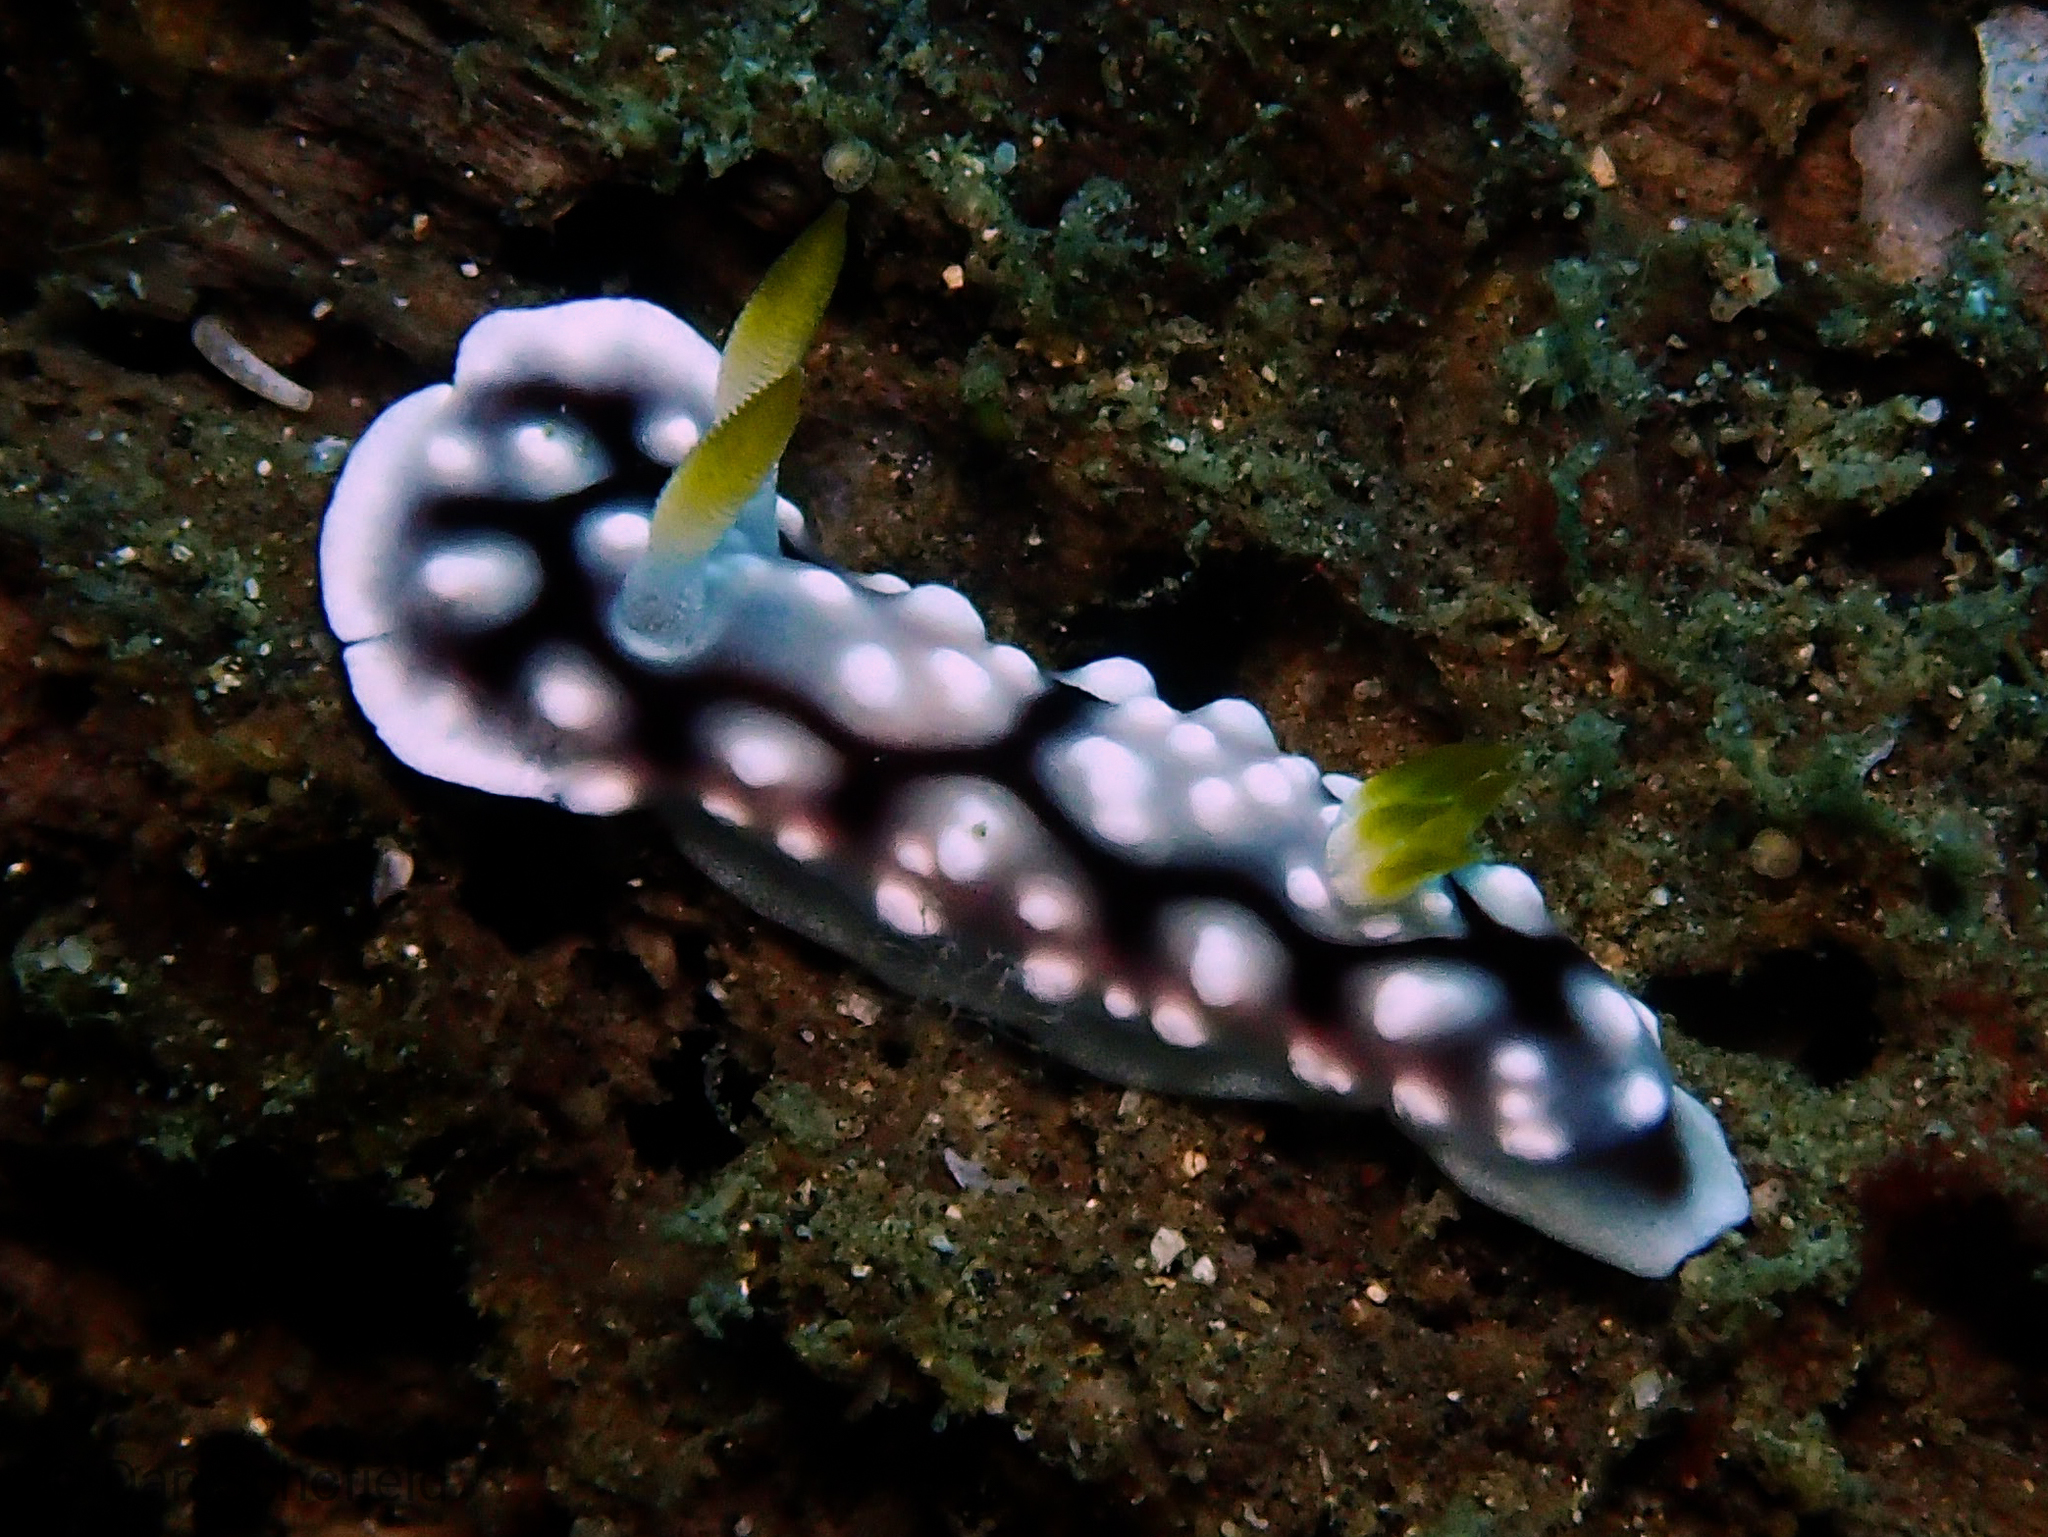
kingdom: Animalia
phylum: Mollusca
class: Gastropoda
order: Nudibranchia
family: Chromodorididae
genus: Goniobranchus
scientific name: Goniobranchus geometricus
